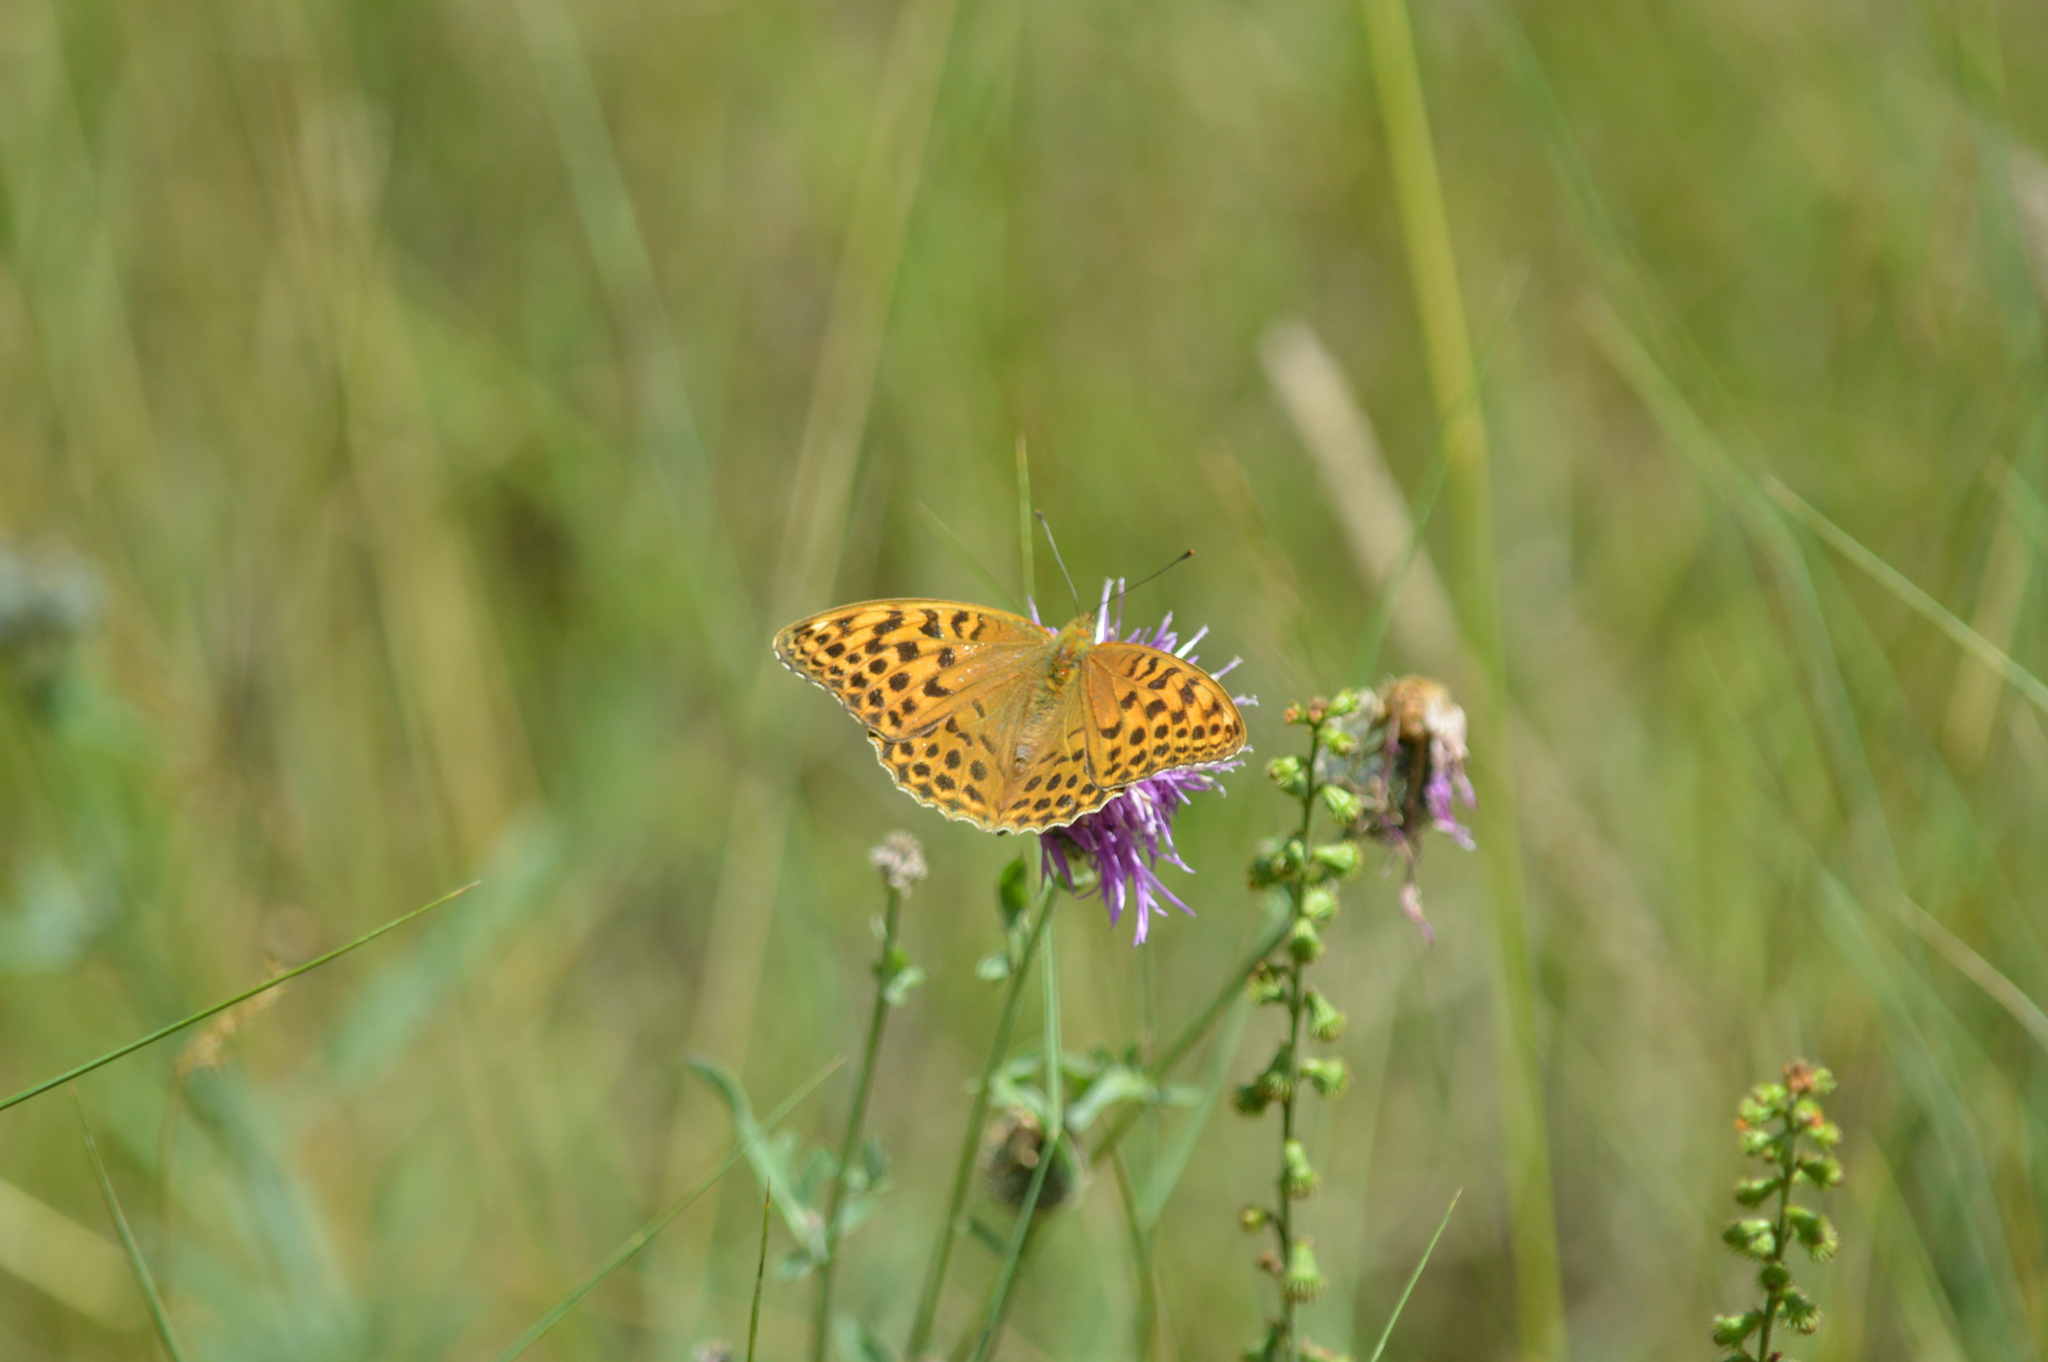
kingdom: Animalia
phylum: Arthropoda
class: Insecta
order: Lepidoptera
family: Nymphalidae
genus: Argynnis
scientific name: Argynnis paphia
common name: Silver-washed fritillary
